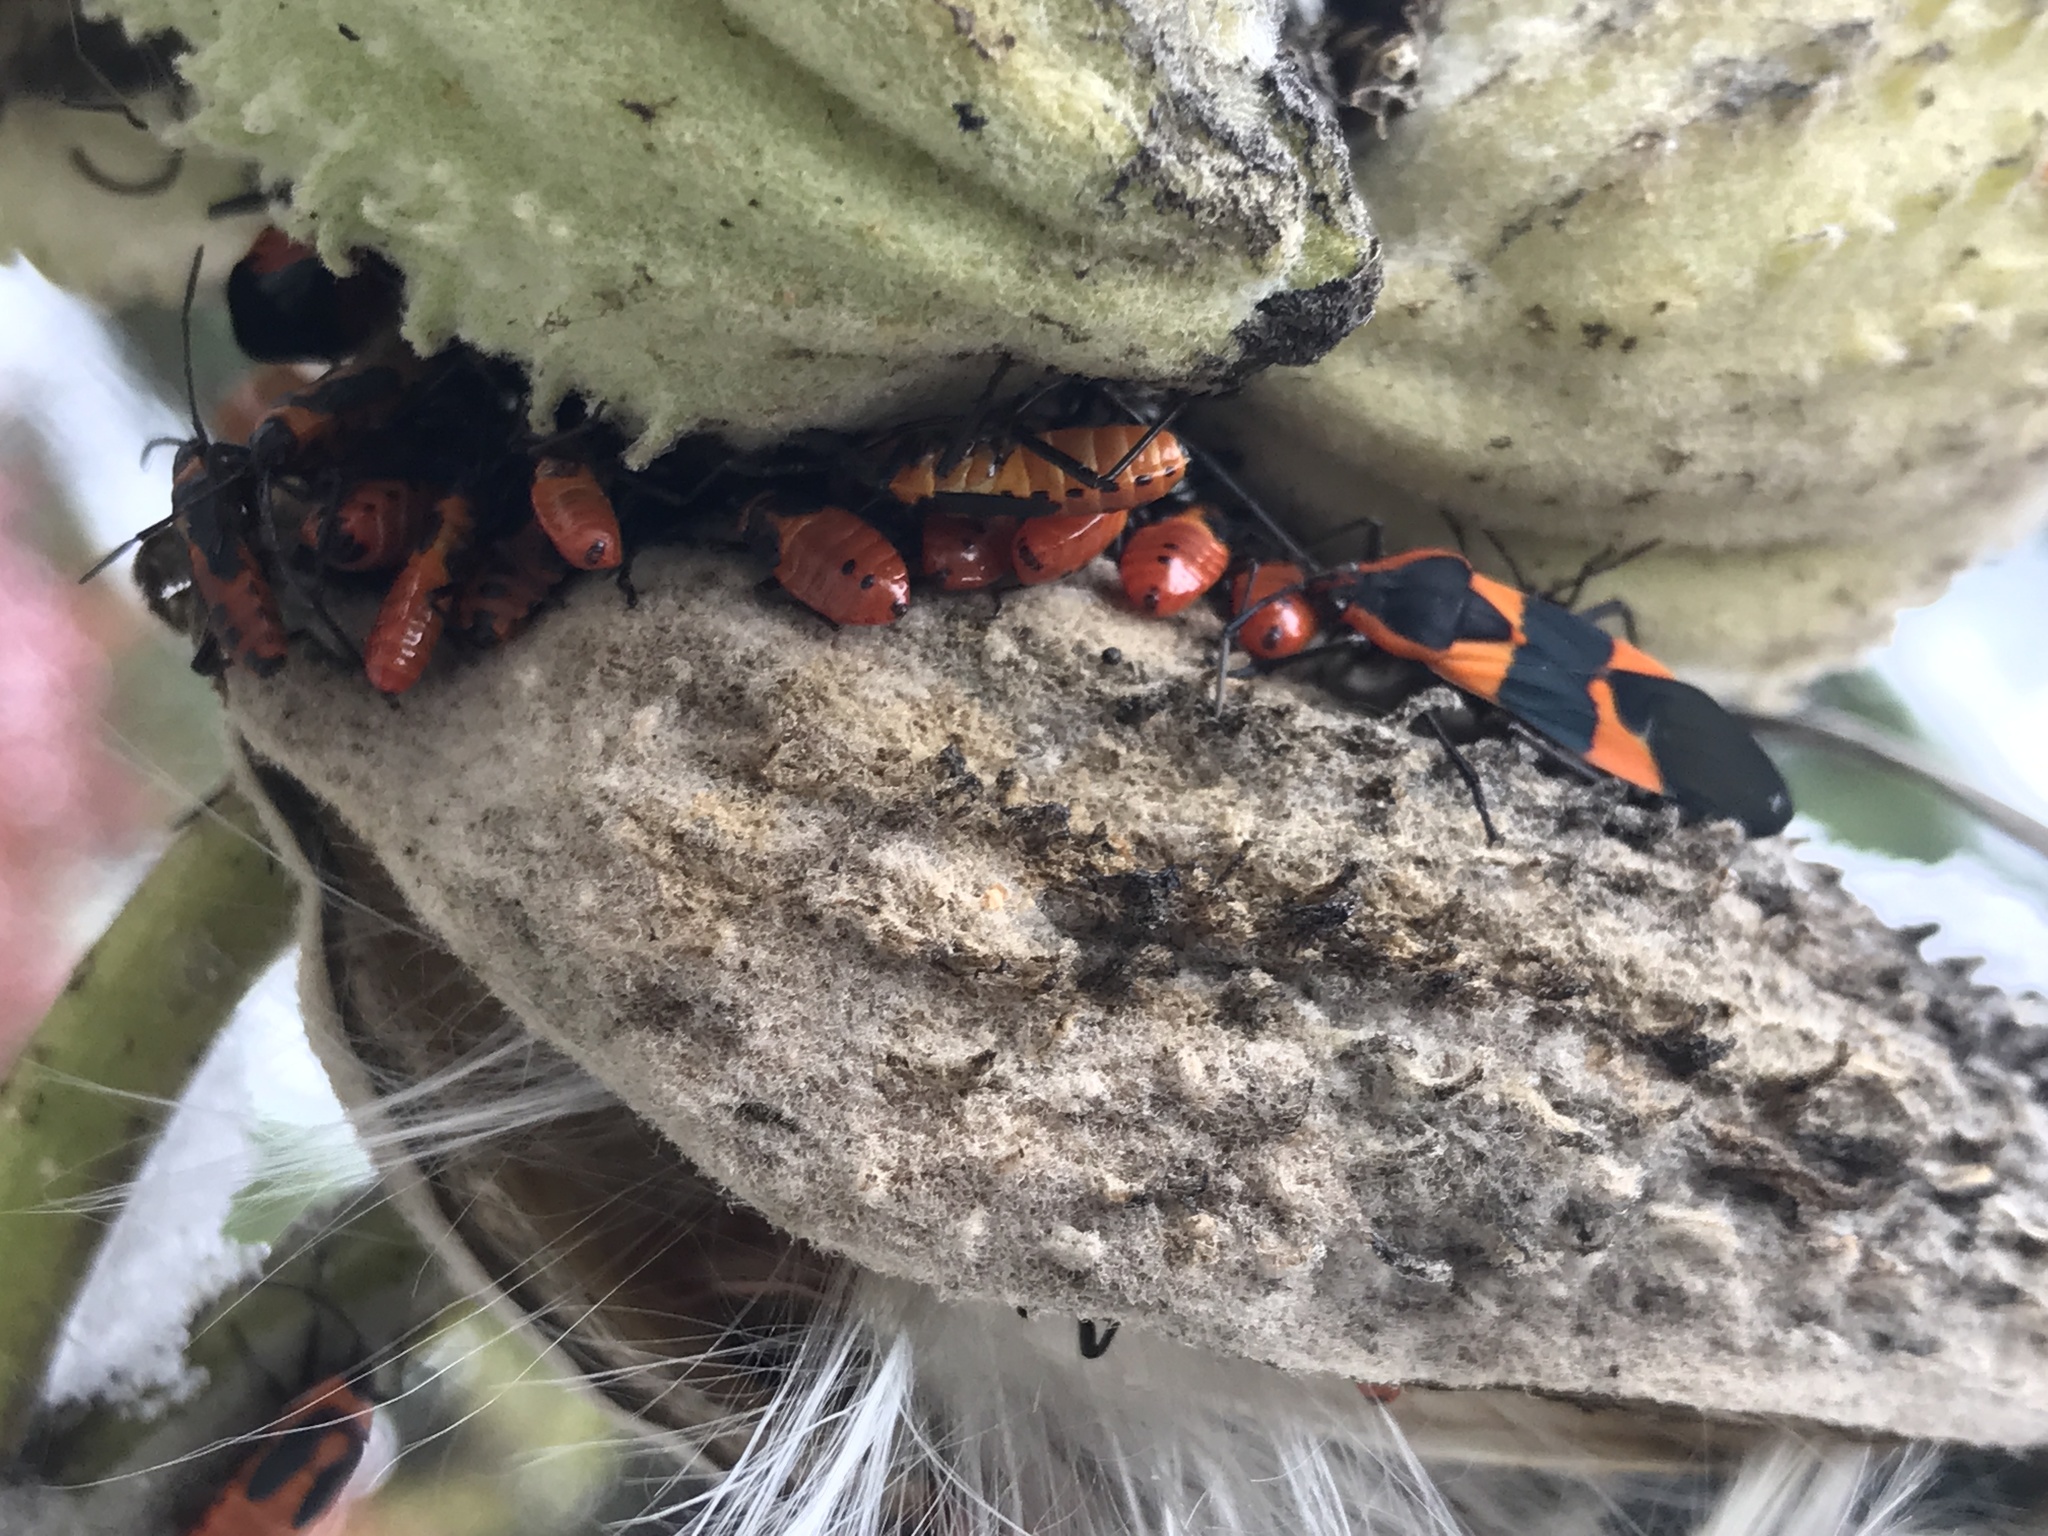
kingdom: Animalia
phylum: Arthropoda
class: Insecta
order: Hemiptera
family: Lygaeidae
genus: Oncopeltus
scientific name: Oncopeltus fasciatus
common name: Large milkweed bug
